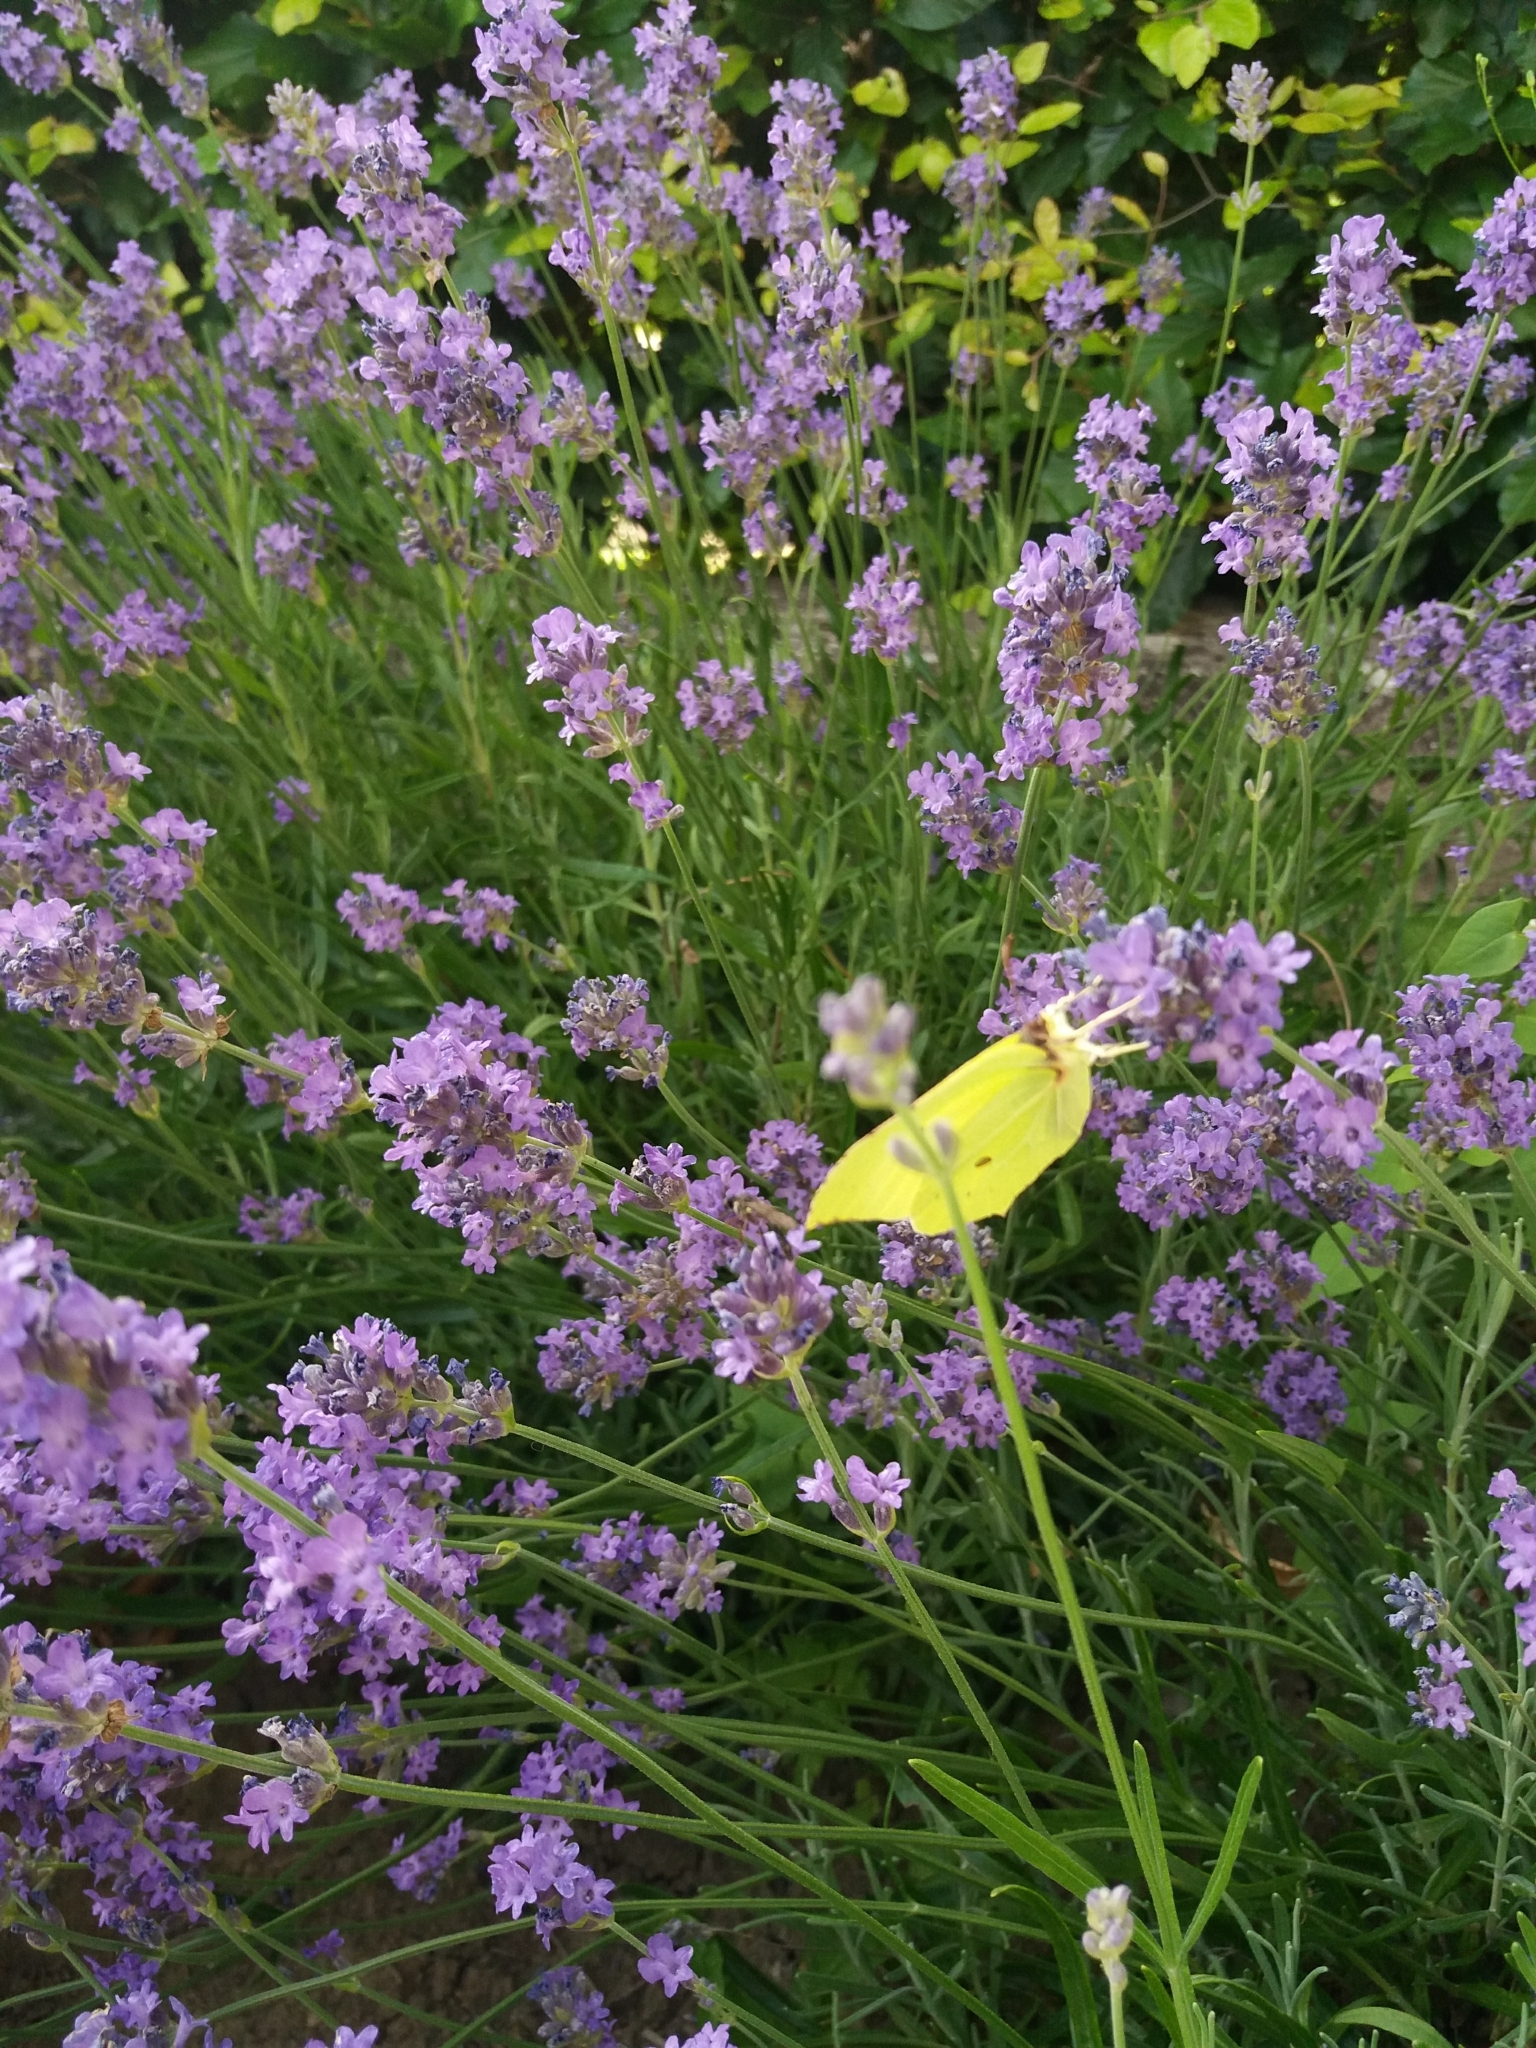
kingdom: Animalia
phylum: Arthropoda
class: Insecta
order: Lepidoptera
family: Pieridae
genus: Gonepteryx
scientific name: Gonepteryx rhamni
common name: Brimstone
